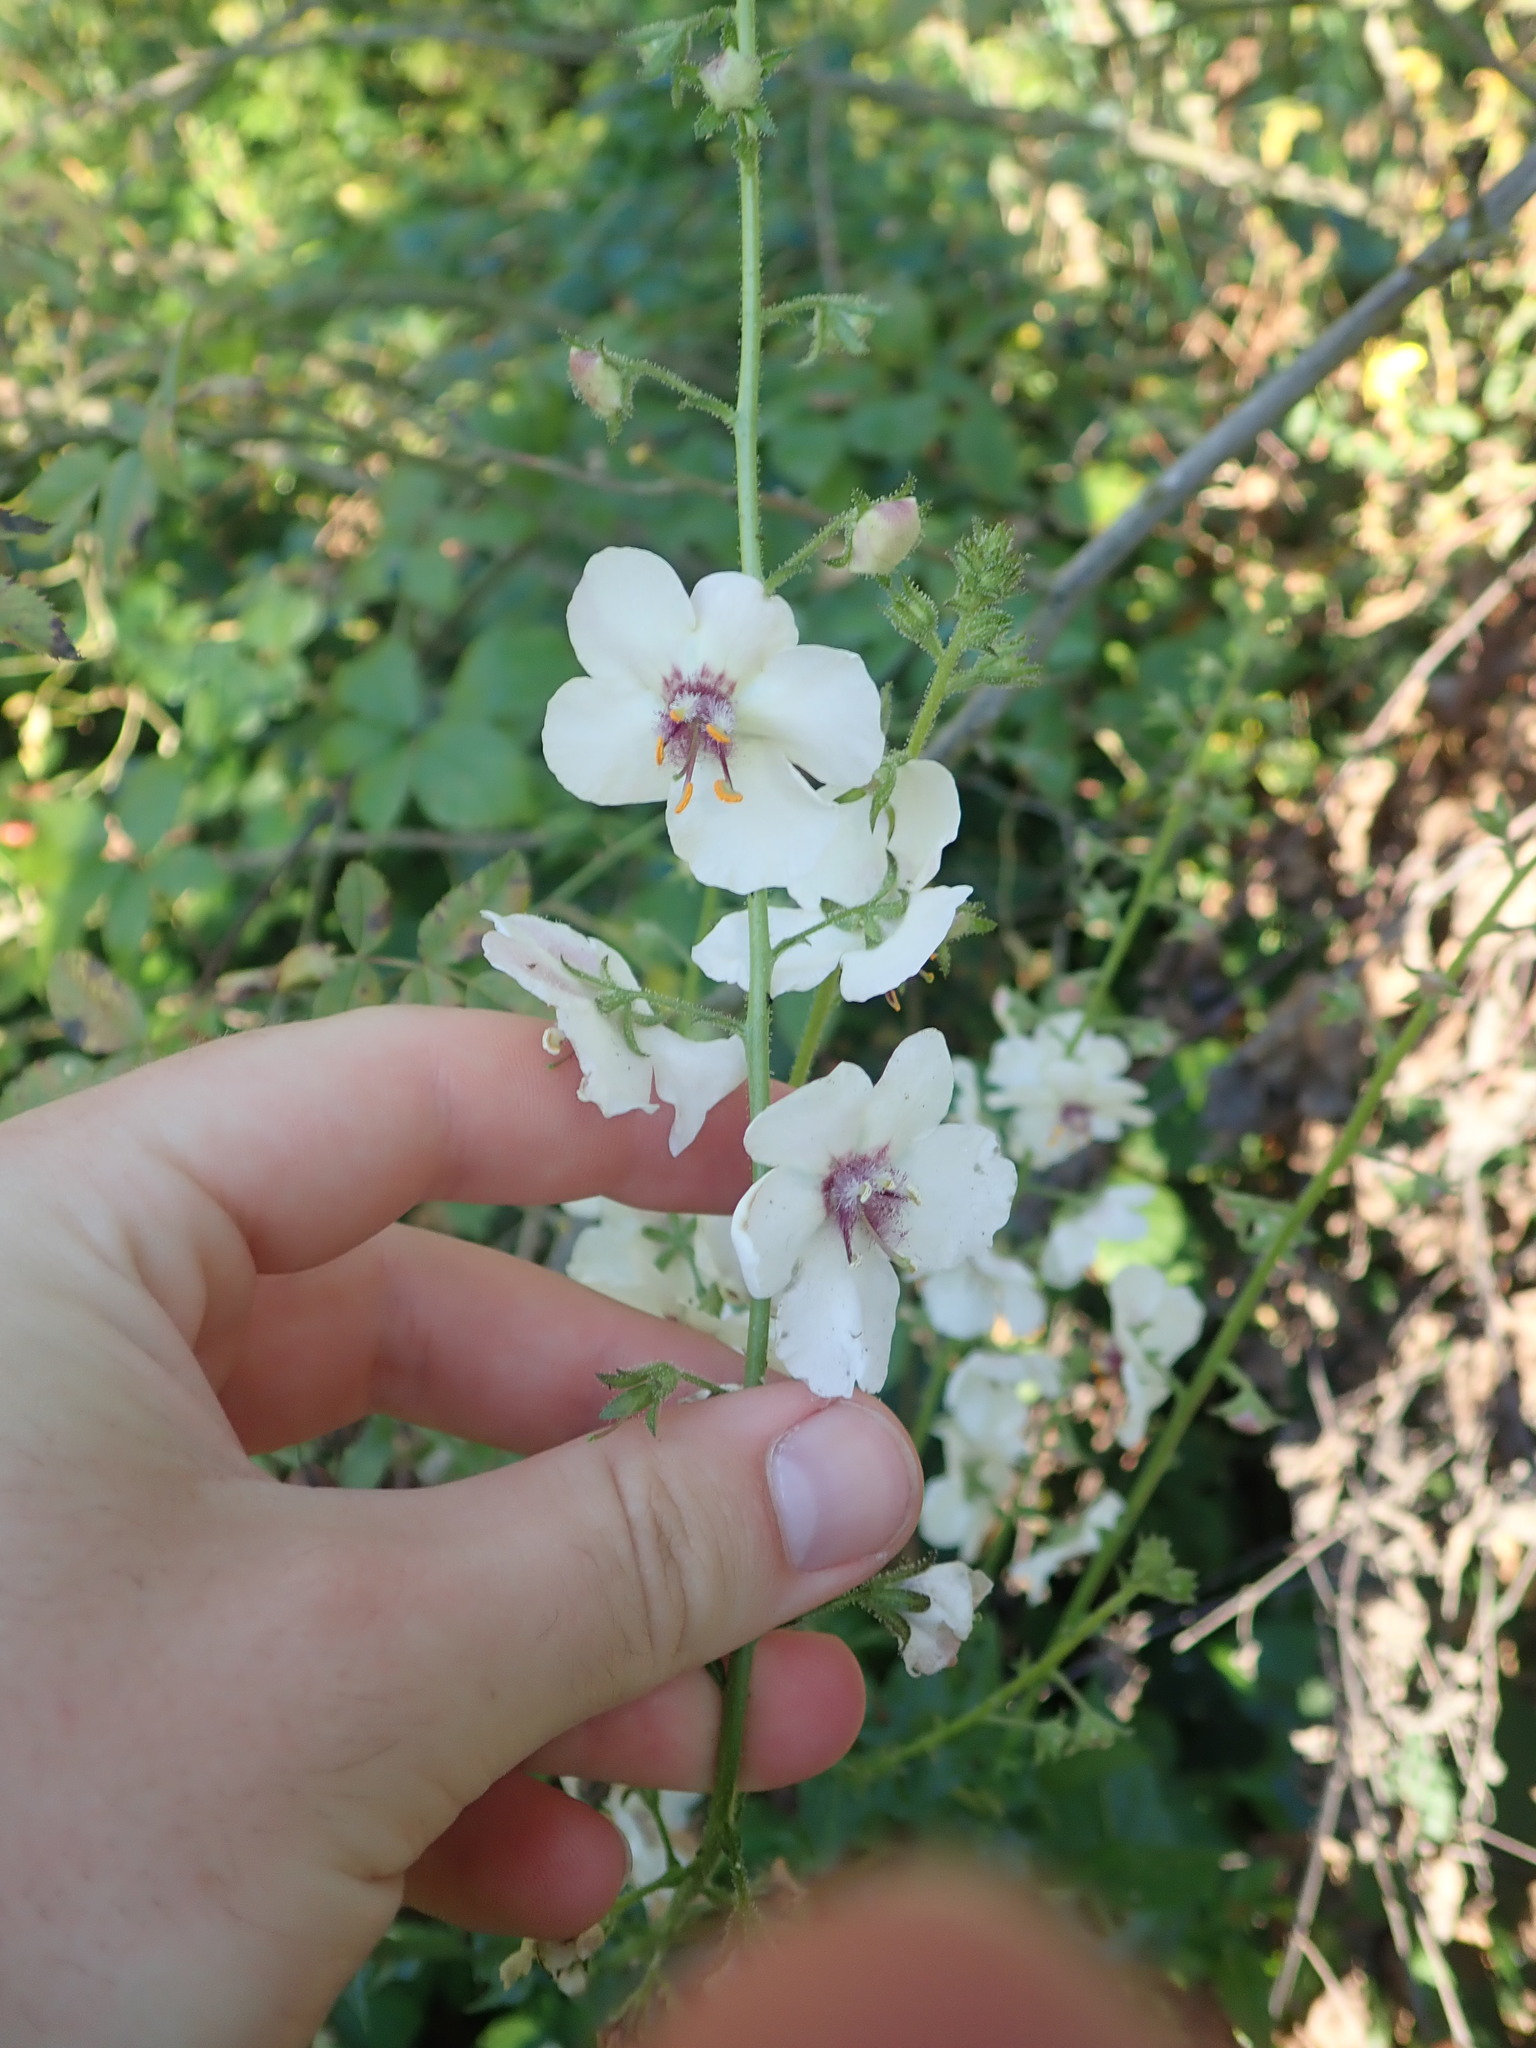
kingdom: Plantae
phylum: Tracheophyta
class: Magnoliopsida
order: Lamiales
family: Scrophulariaceae
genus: Verbascum
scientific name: Verbascum blattaria
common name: Moth mullein
